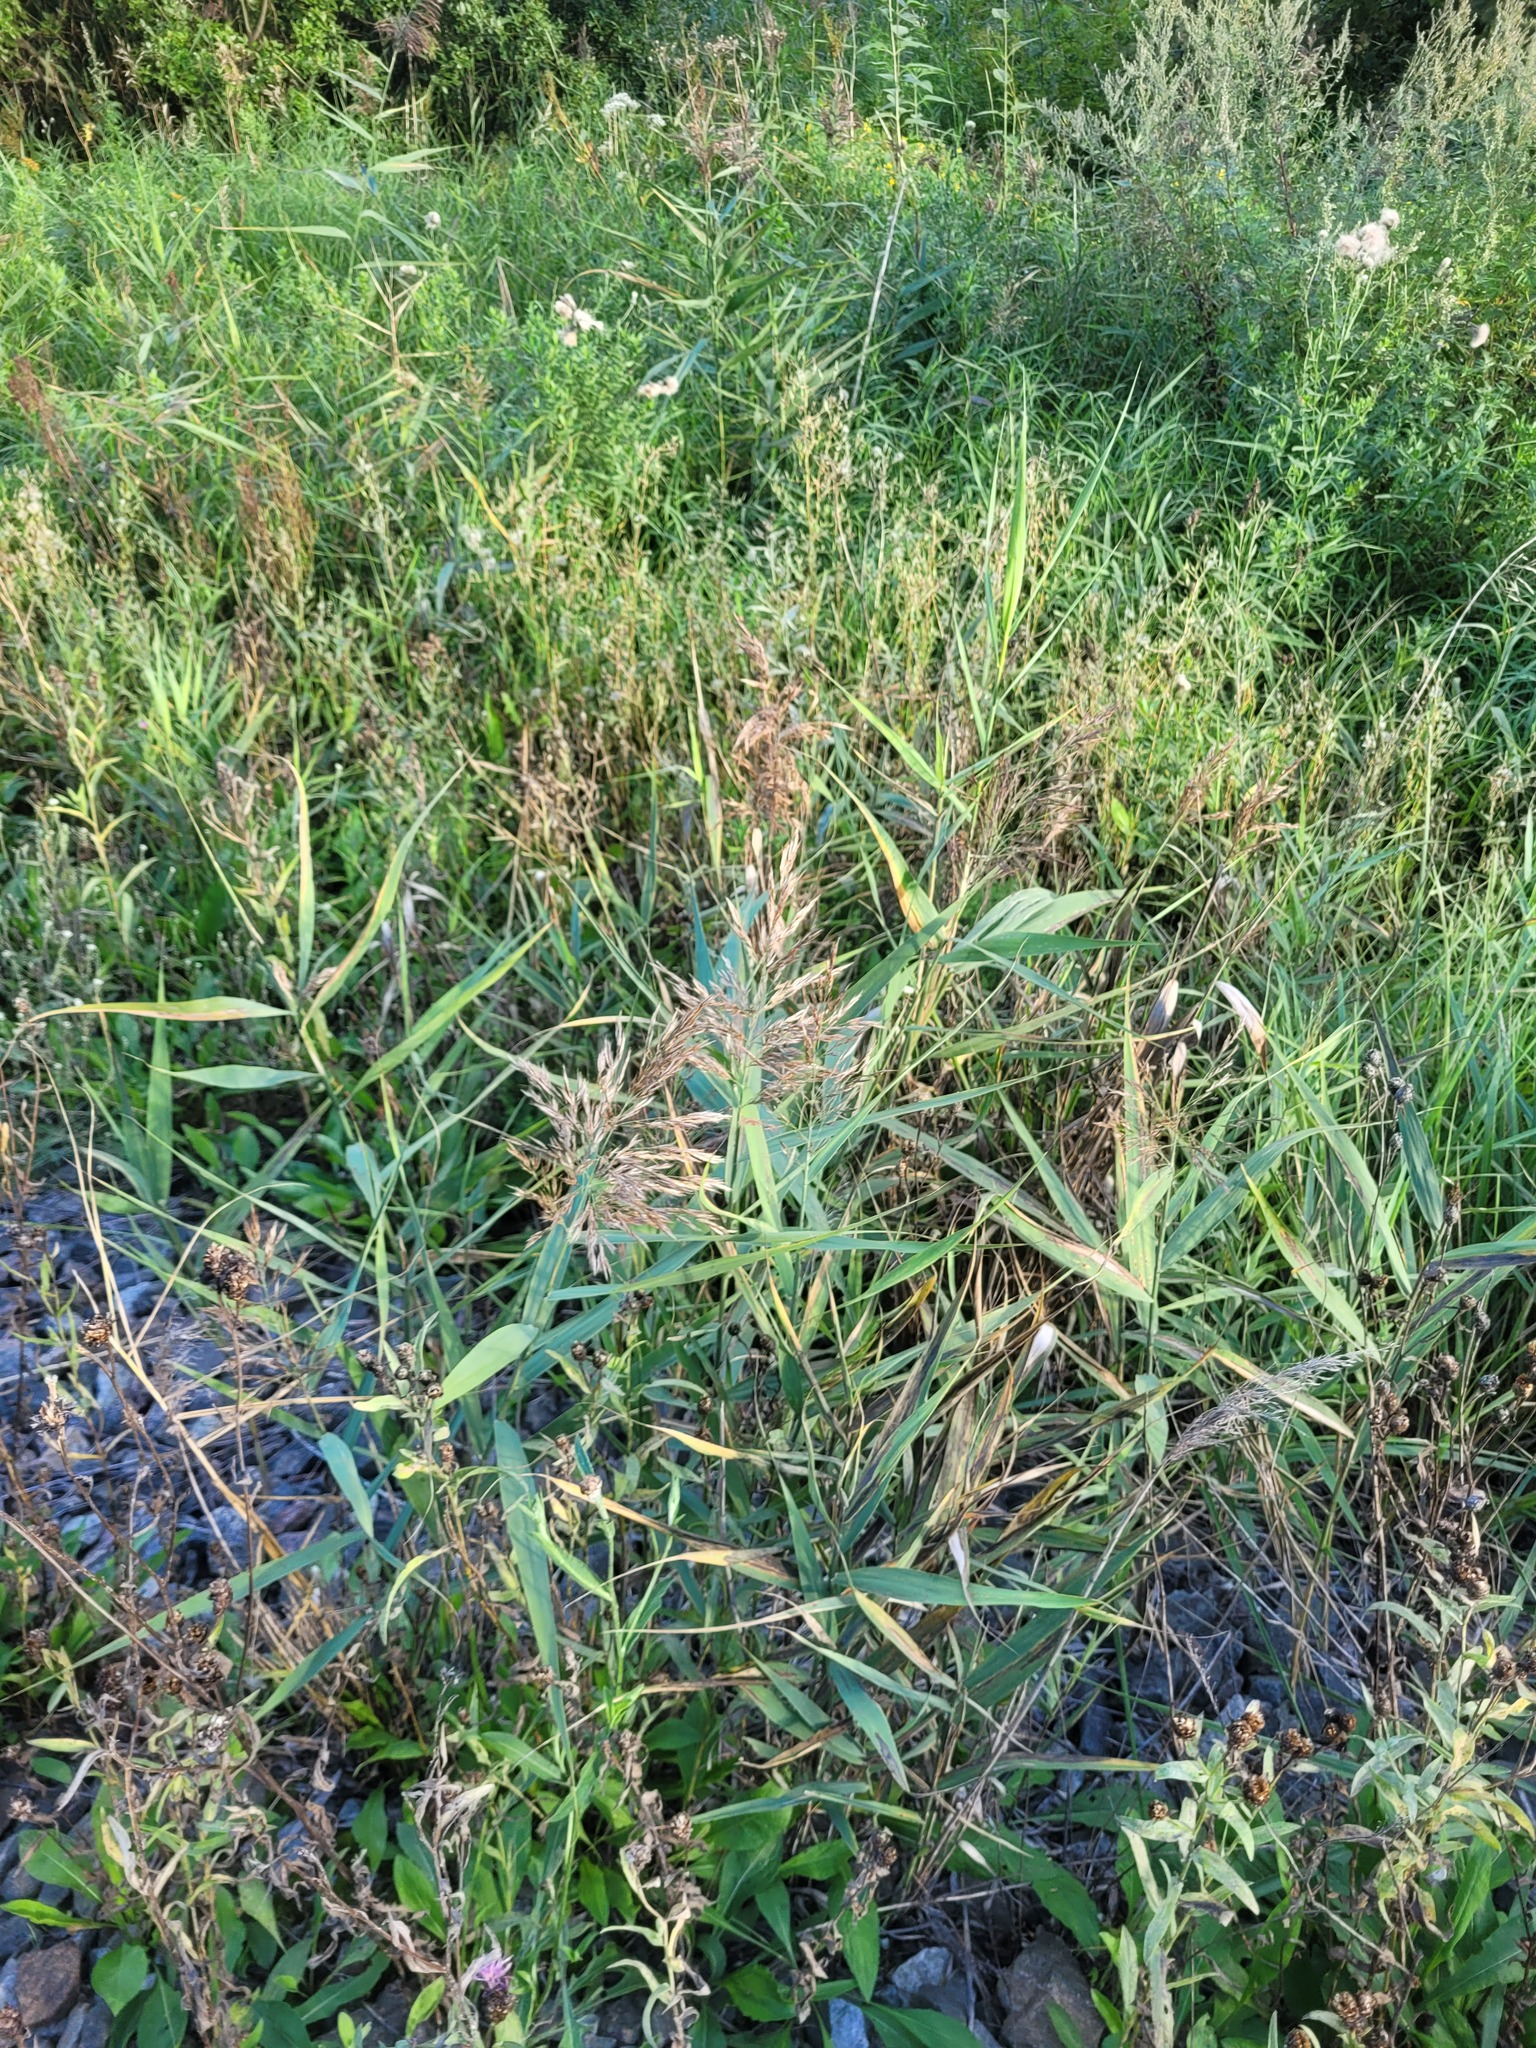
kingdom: Plantae
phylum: Tracheophyta
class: Liliopsida
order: Poales
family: Poaceae
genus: Phragmites
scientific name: Phragmites australis
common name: Common reed
